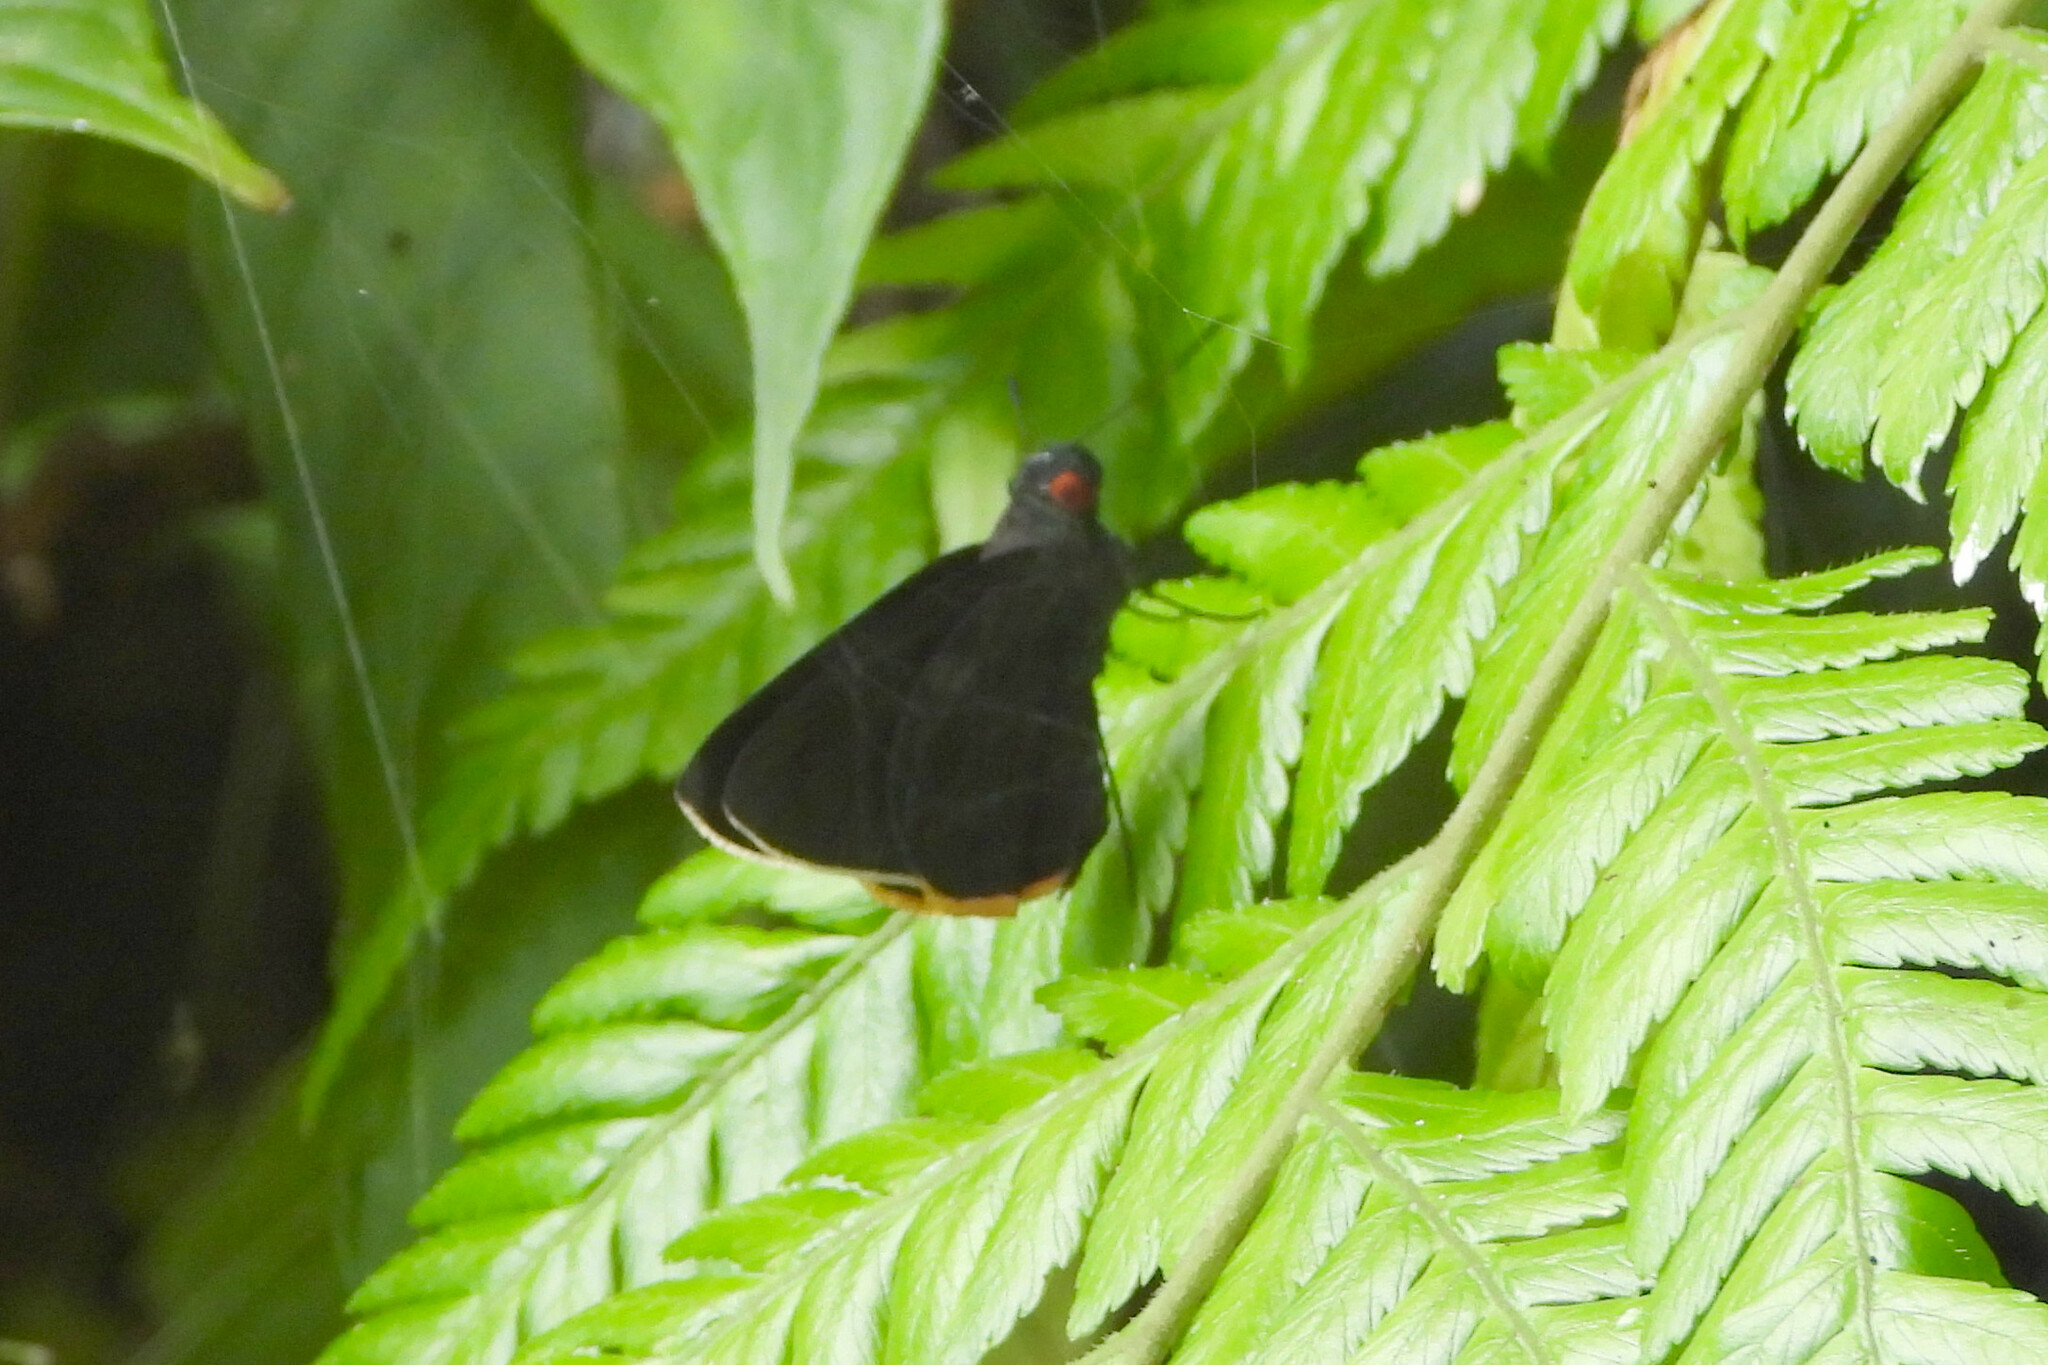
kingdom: Animalia
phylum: Arthropoda
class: Insecta
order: Lepidoptera
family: Hesperiidae
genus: Matapa
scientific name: Matapa sasivarna
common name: Black-veined redeye
